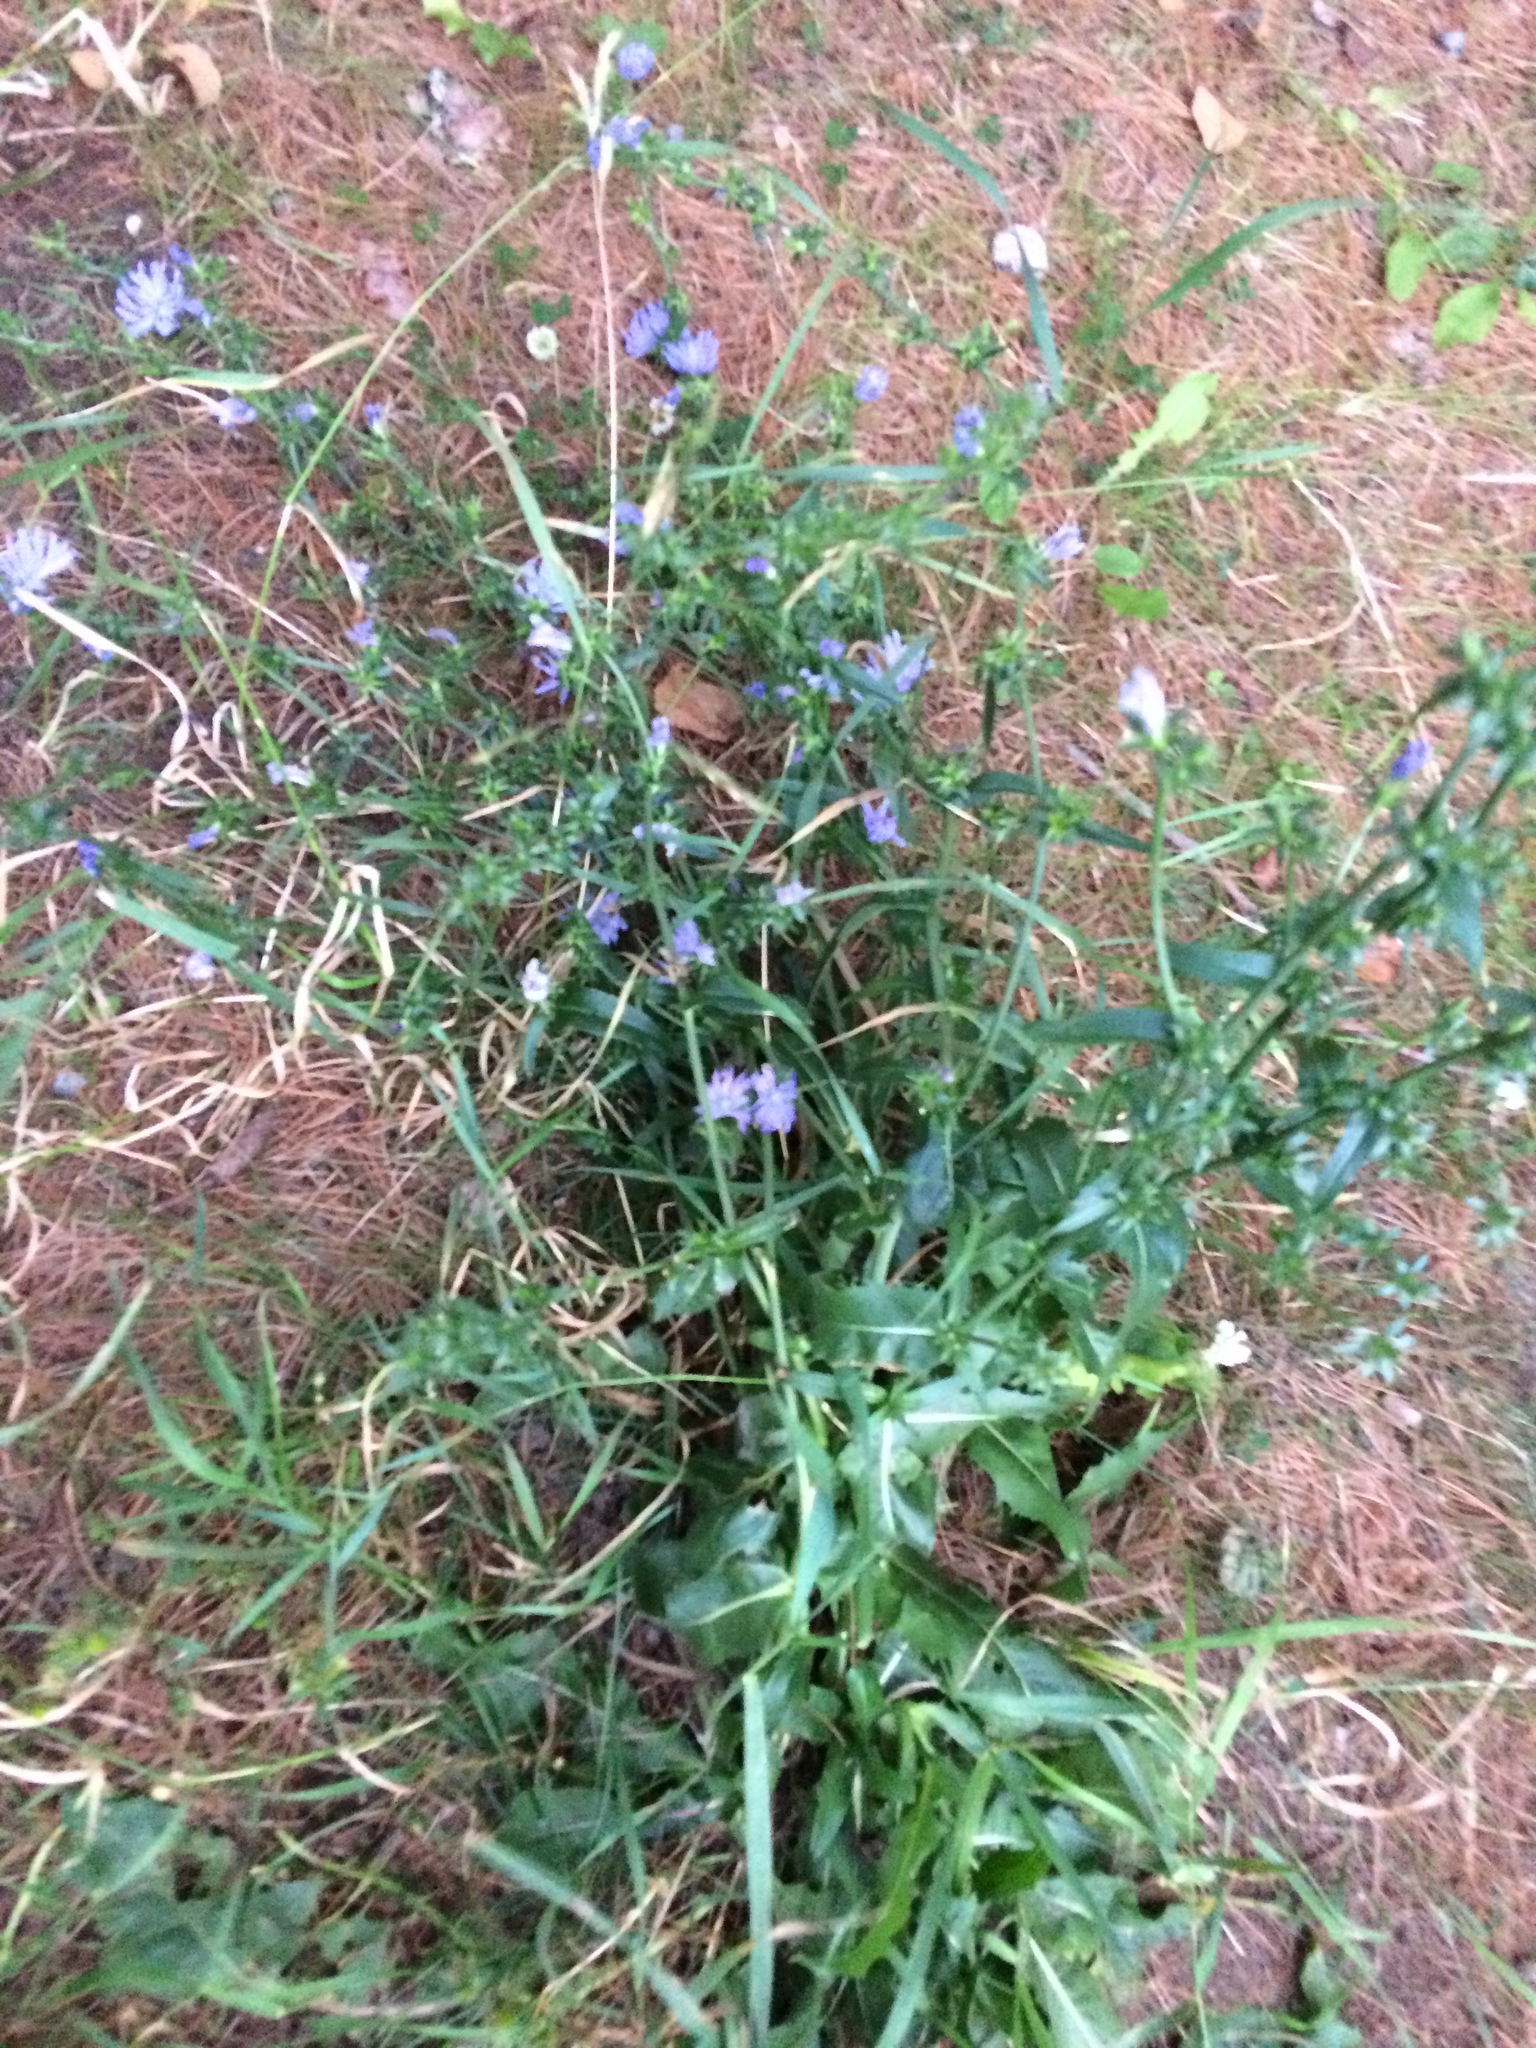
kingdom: Plantae
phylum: Tracheophyta
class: Magnoliopsida
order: Asterales
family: Asteraceae
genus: Cichorium
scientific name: Cichorium intybus
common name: Chicory
